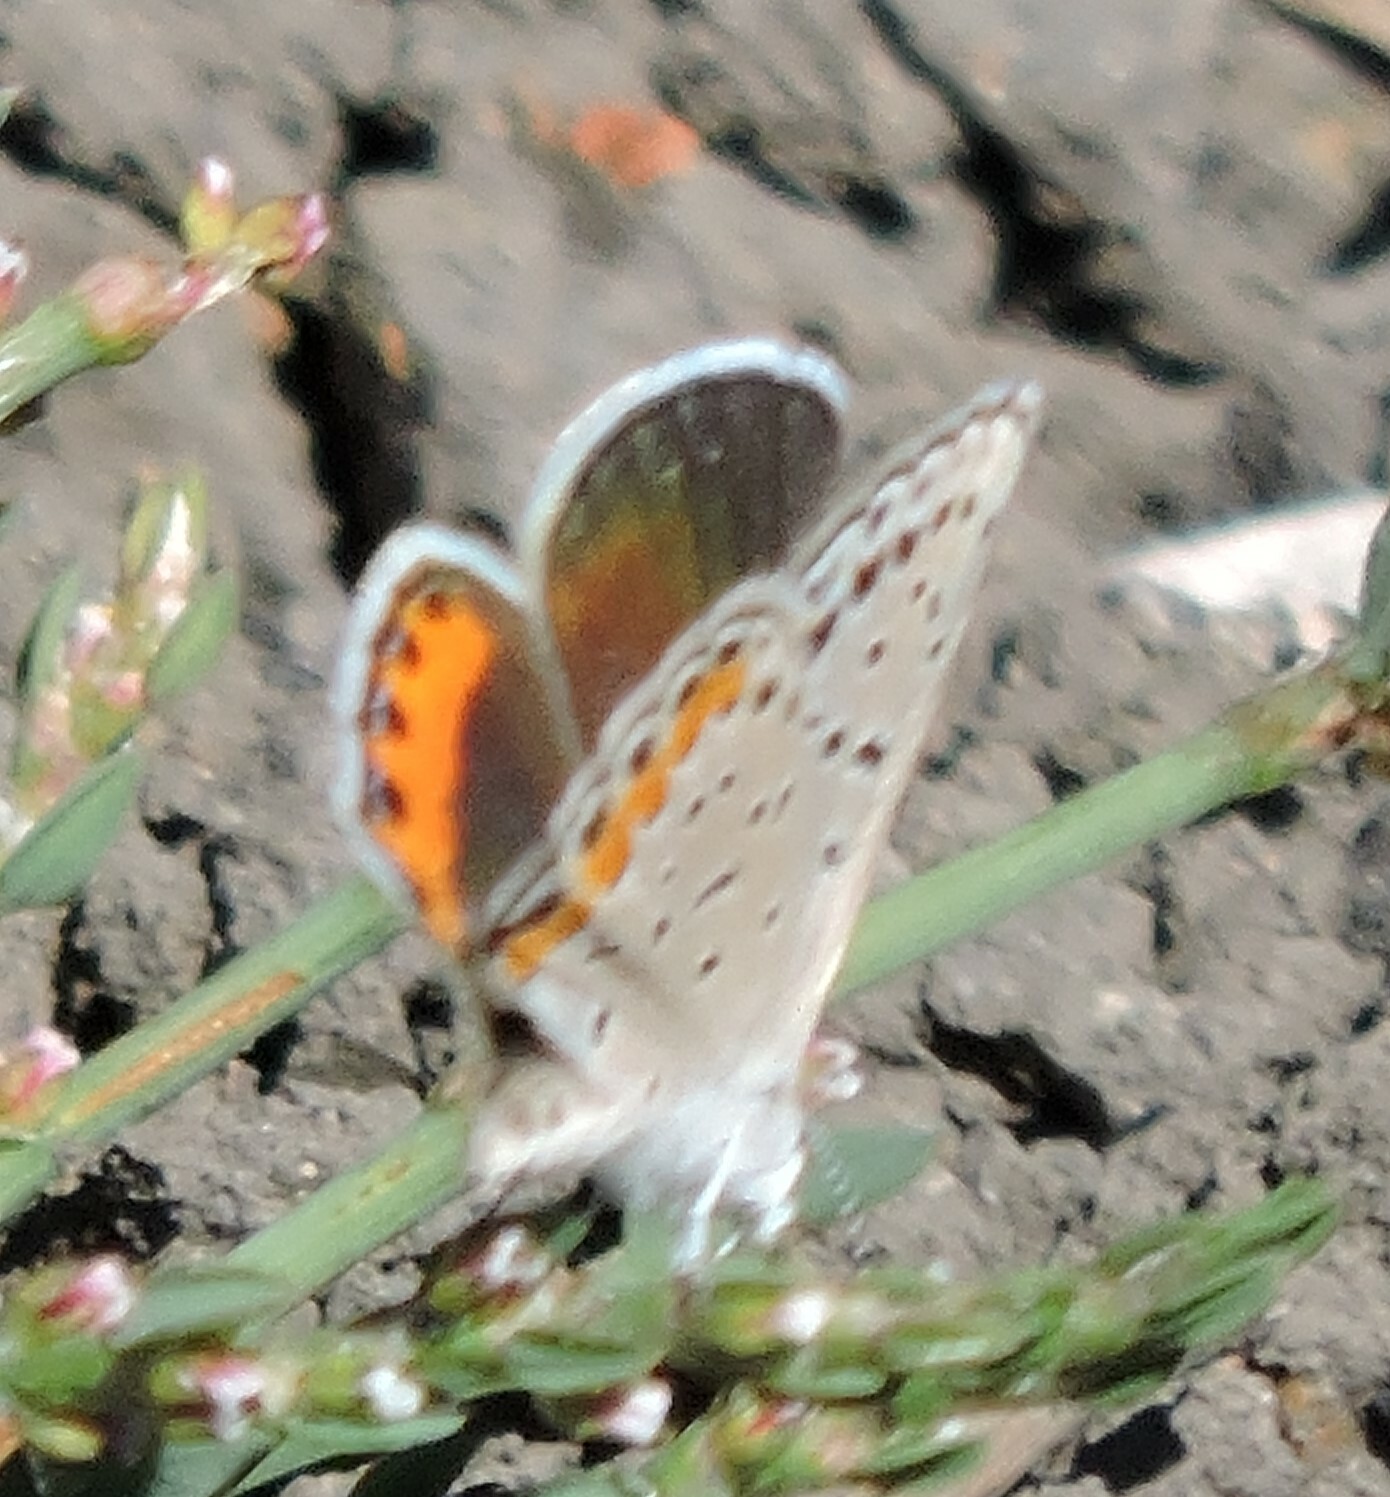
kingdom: Animalia
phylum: Arthropoda
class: Insecta
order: Lepidoptera
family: Lycaenidae
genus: Icaricia
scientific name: Icaricia acmon
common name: Acmon blue
